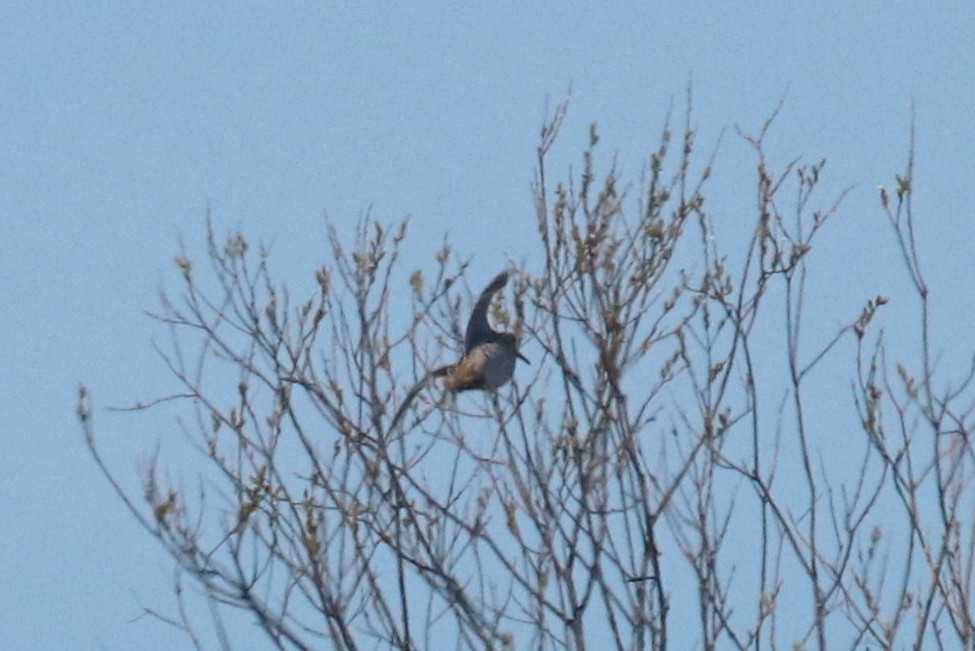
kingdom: Animalia
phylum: Chordata
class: Aves
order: Charadriiformes
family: Scolopacidae
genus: Gallinago
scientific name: Gallinago gallinago
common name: Common snipe
